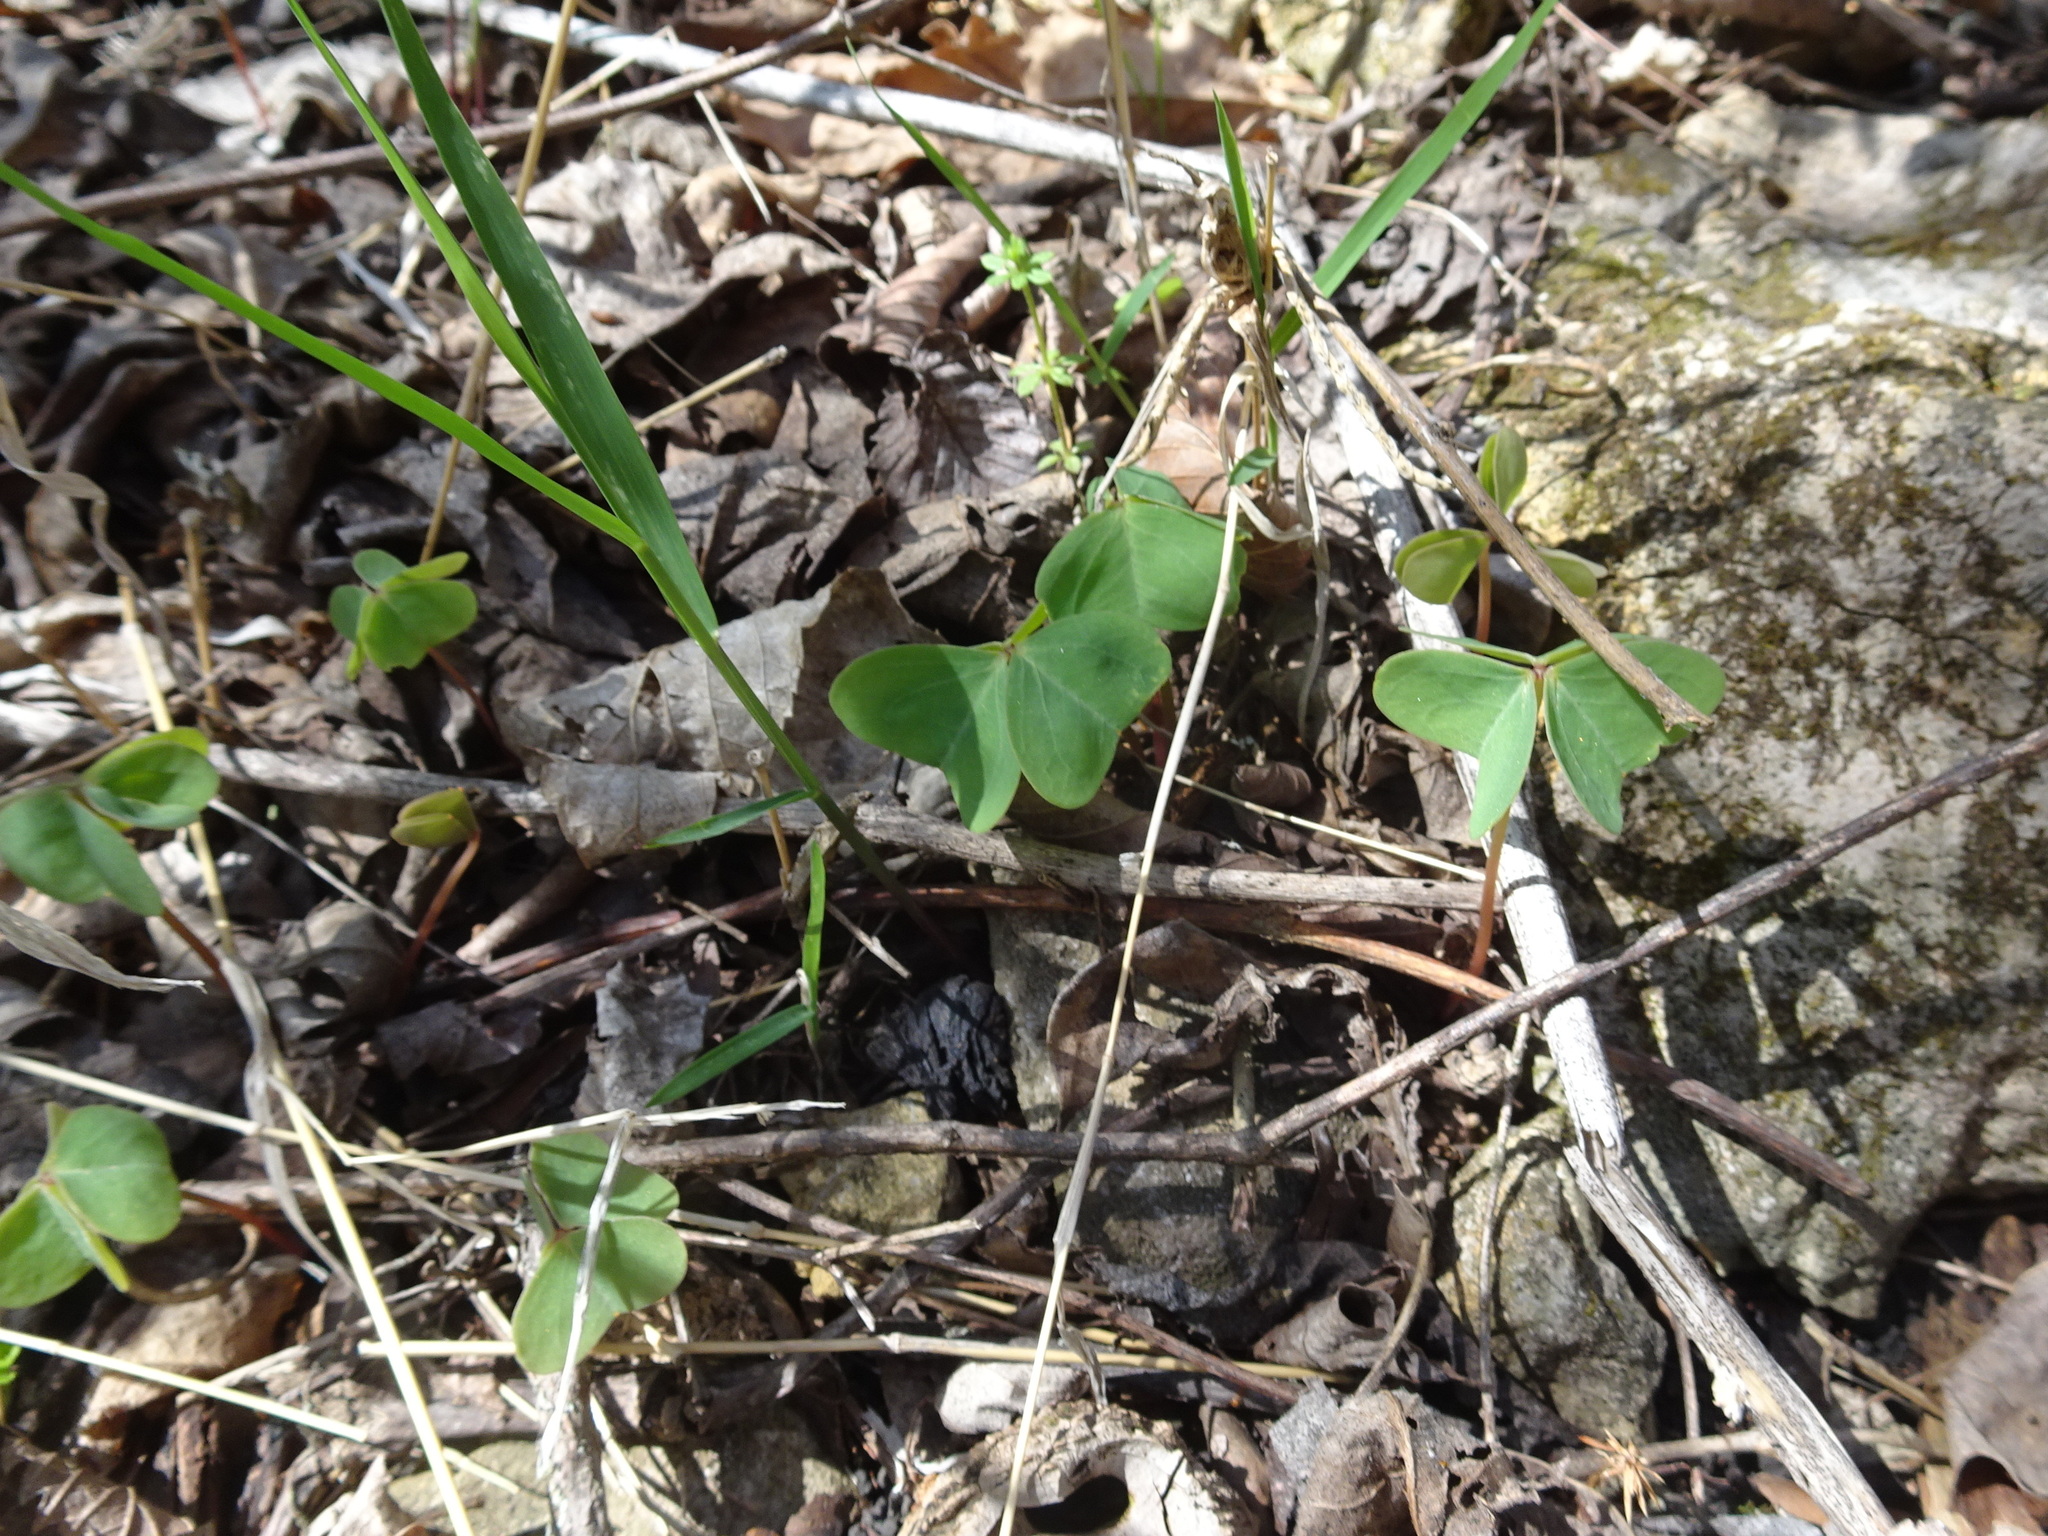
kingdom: Plantae
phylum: Tracheophyta
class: Magnoliopsida
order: Oxalidales
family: Oxalidaceae
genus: Oxalis
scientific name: Oxalis violacea
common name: Violet wood-sorrel
